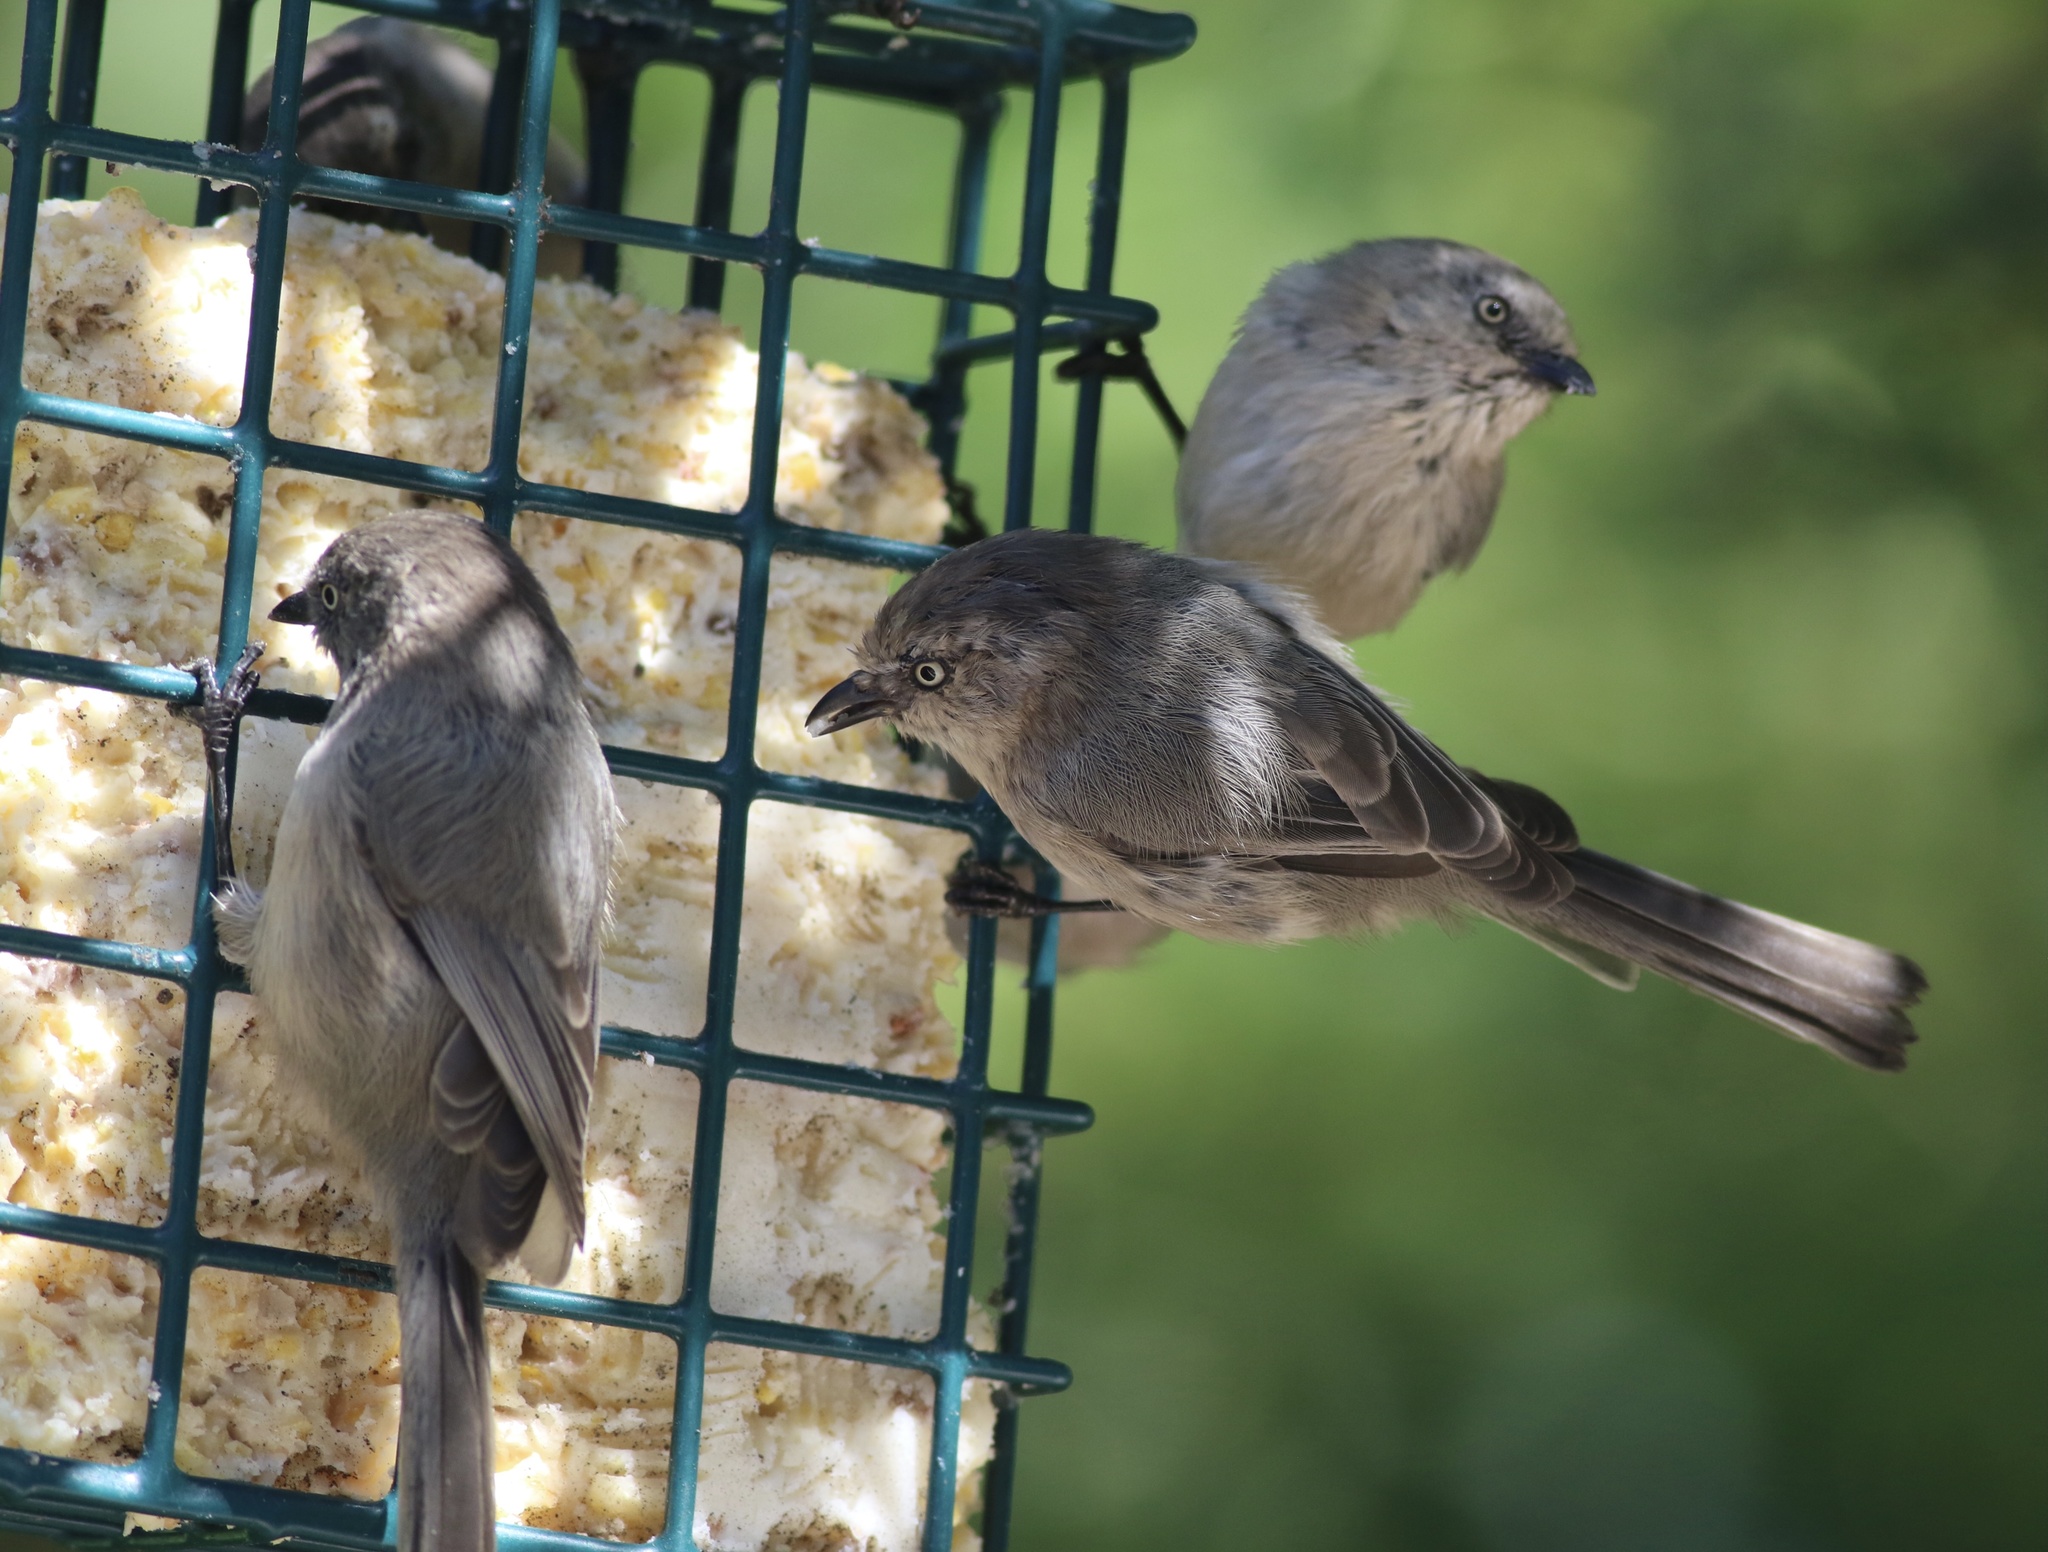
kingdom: Animalia
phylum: Chordata
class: Aves
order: Passeriformes
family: Aegithalidae
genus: Psaltriparus
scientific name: Psaltriparus minimus
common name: American bushtit
